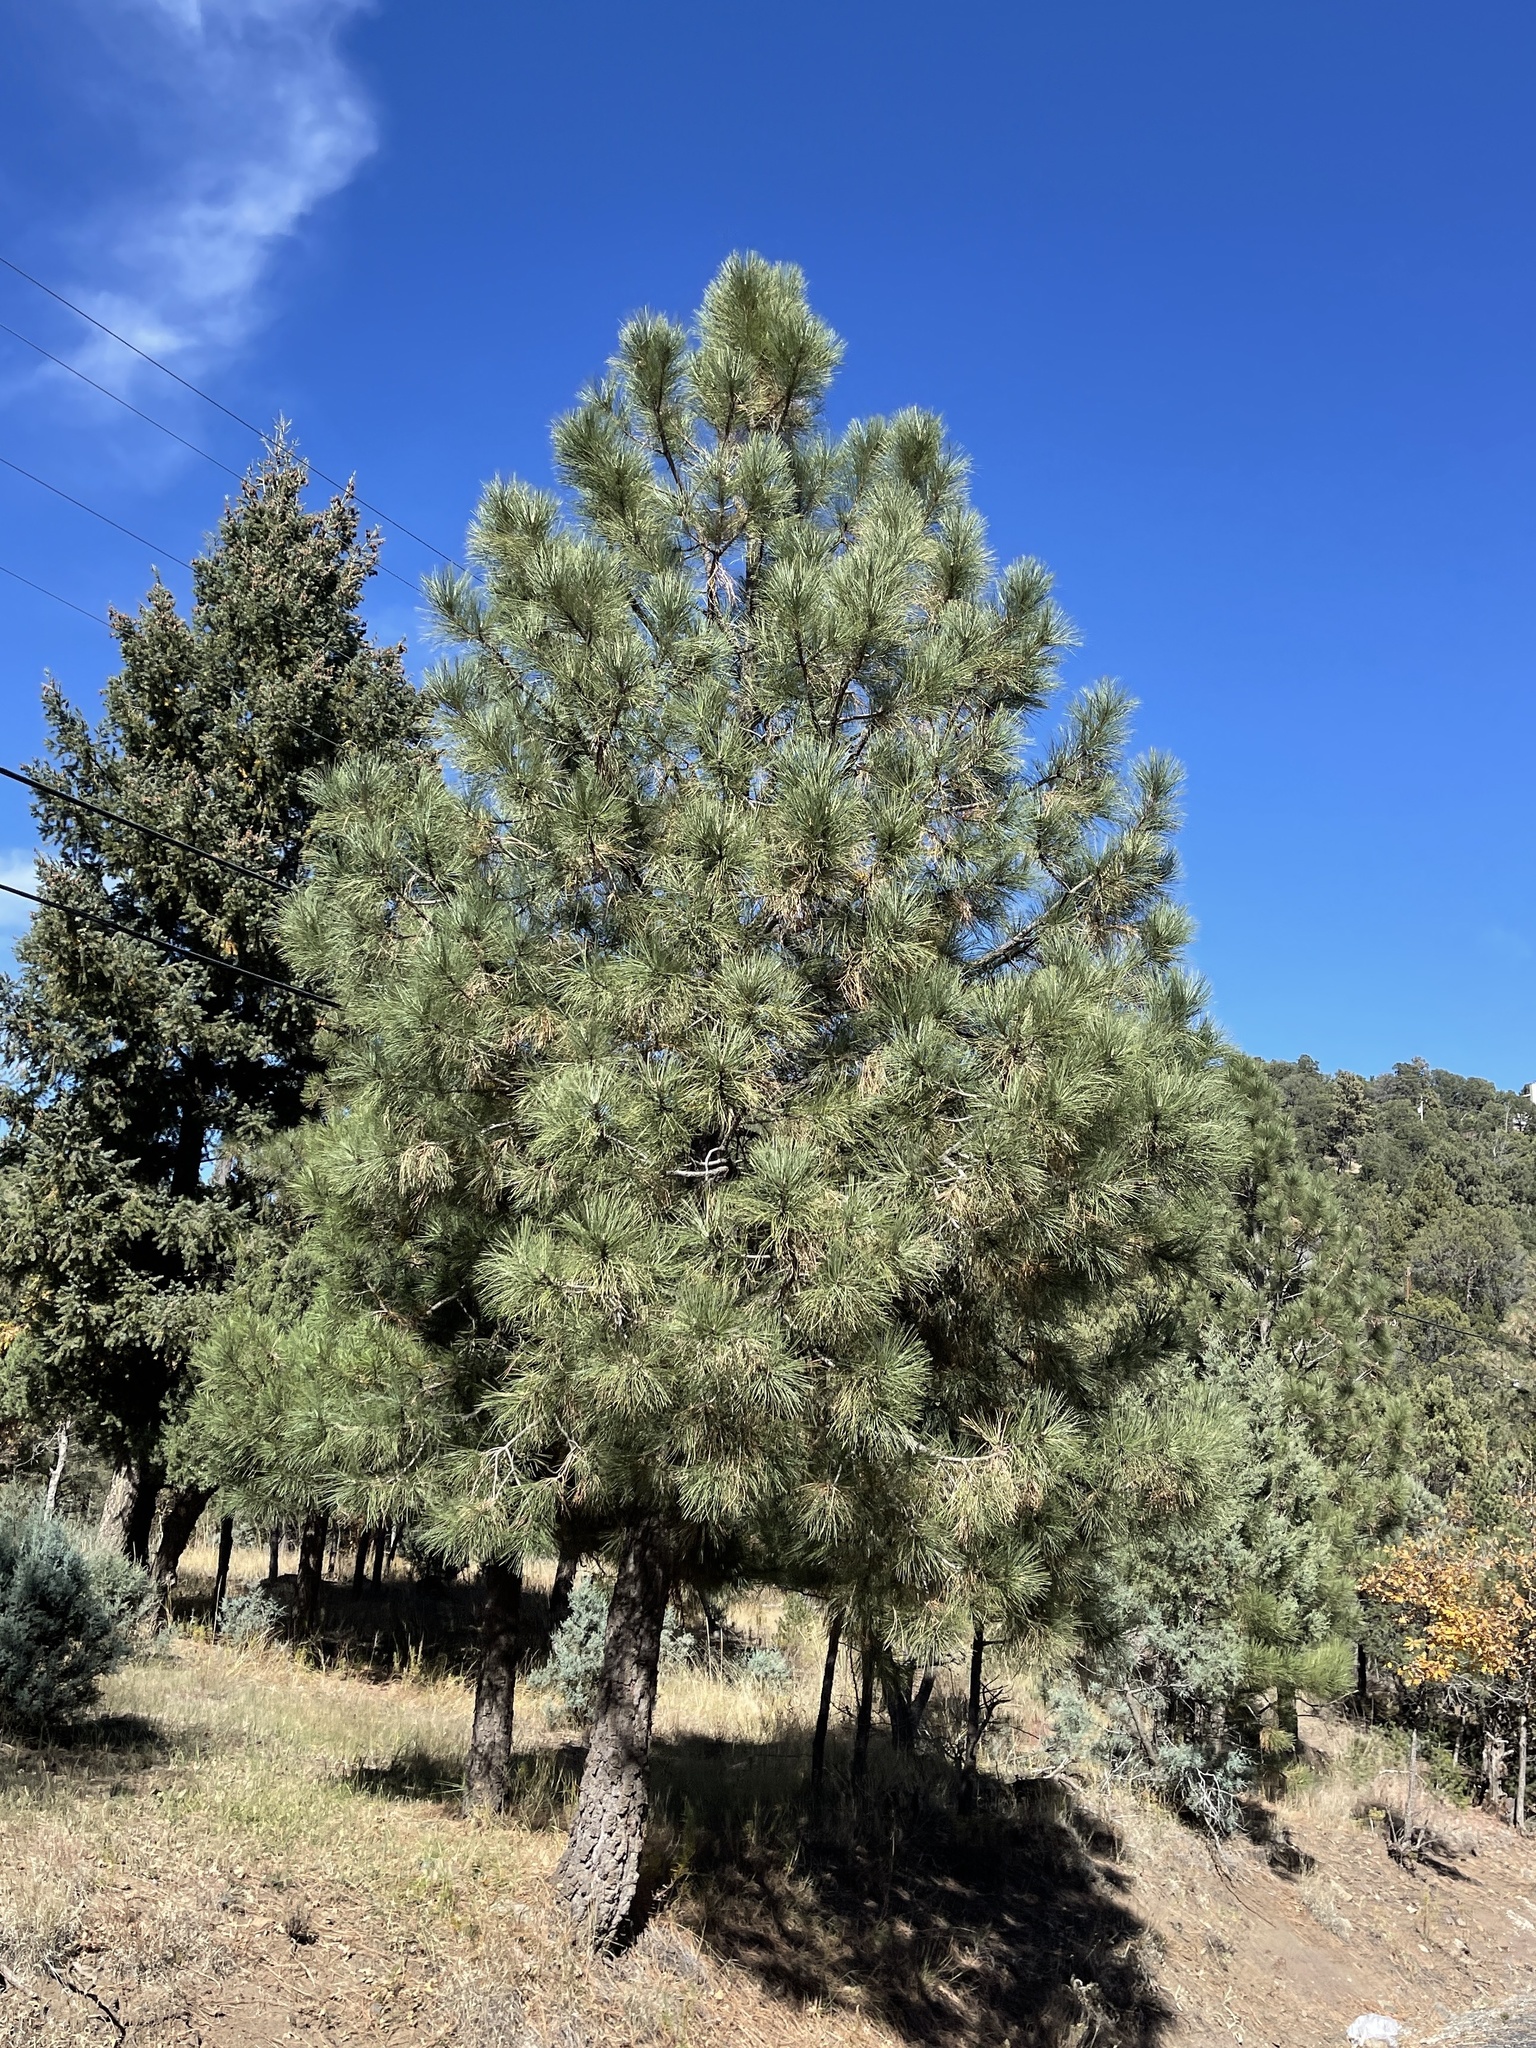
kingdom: Plantae
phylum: Tracheophyta
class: Pinopsida
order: Pinales
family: Pinaceae
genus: Pinus
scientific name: Pinus ponderosa
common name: Western yellow-pine
